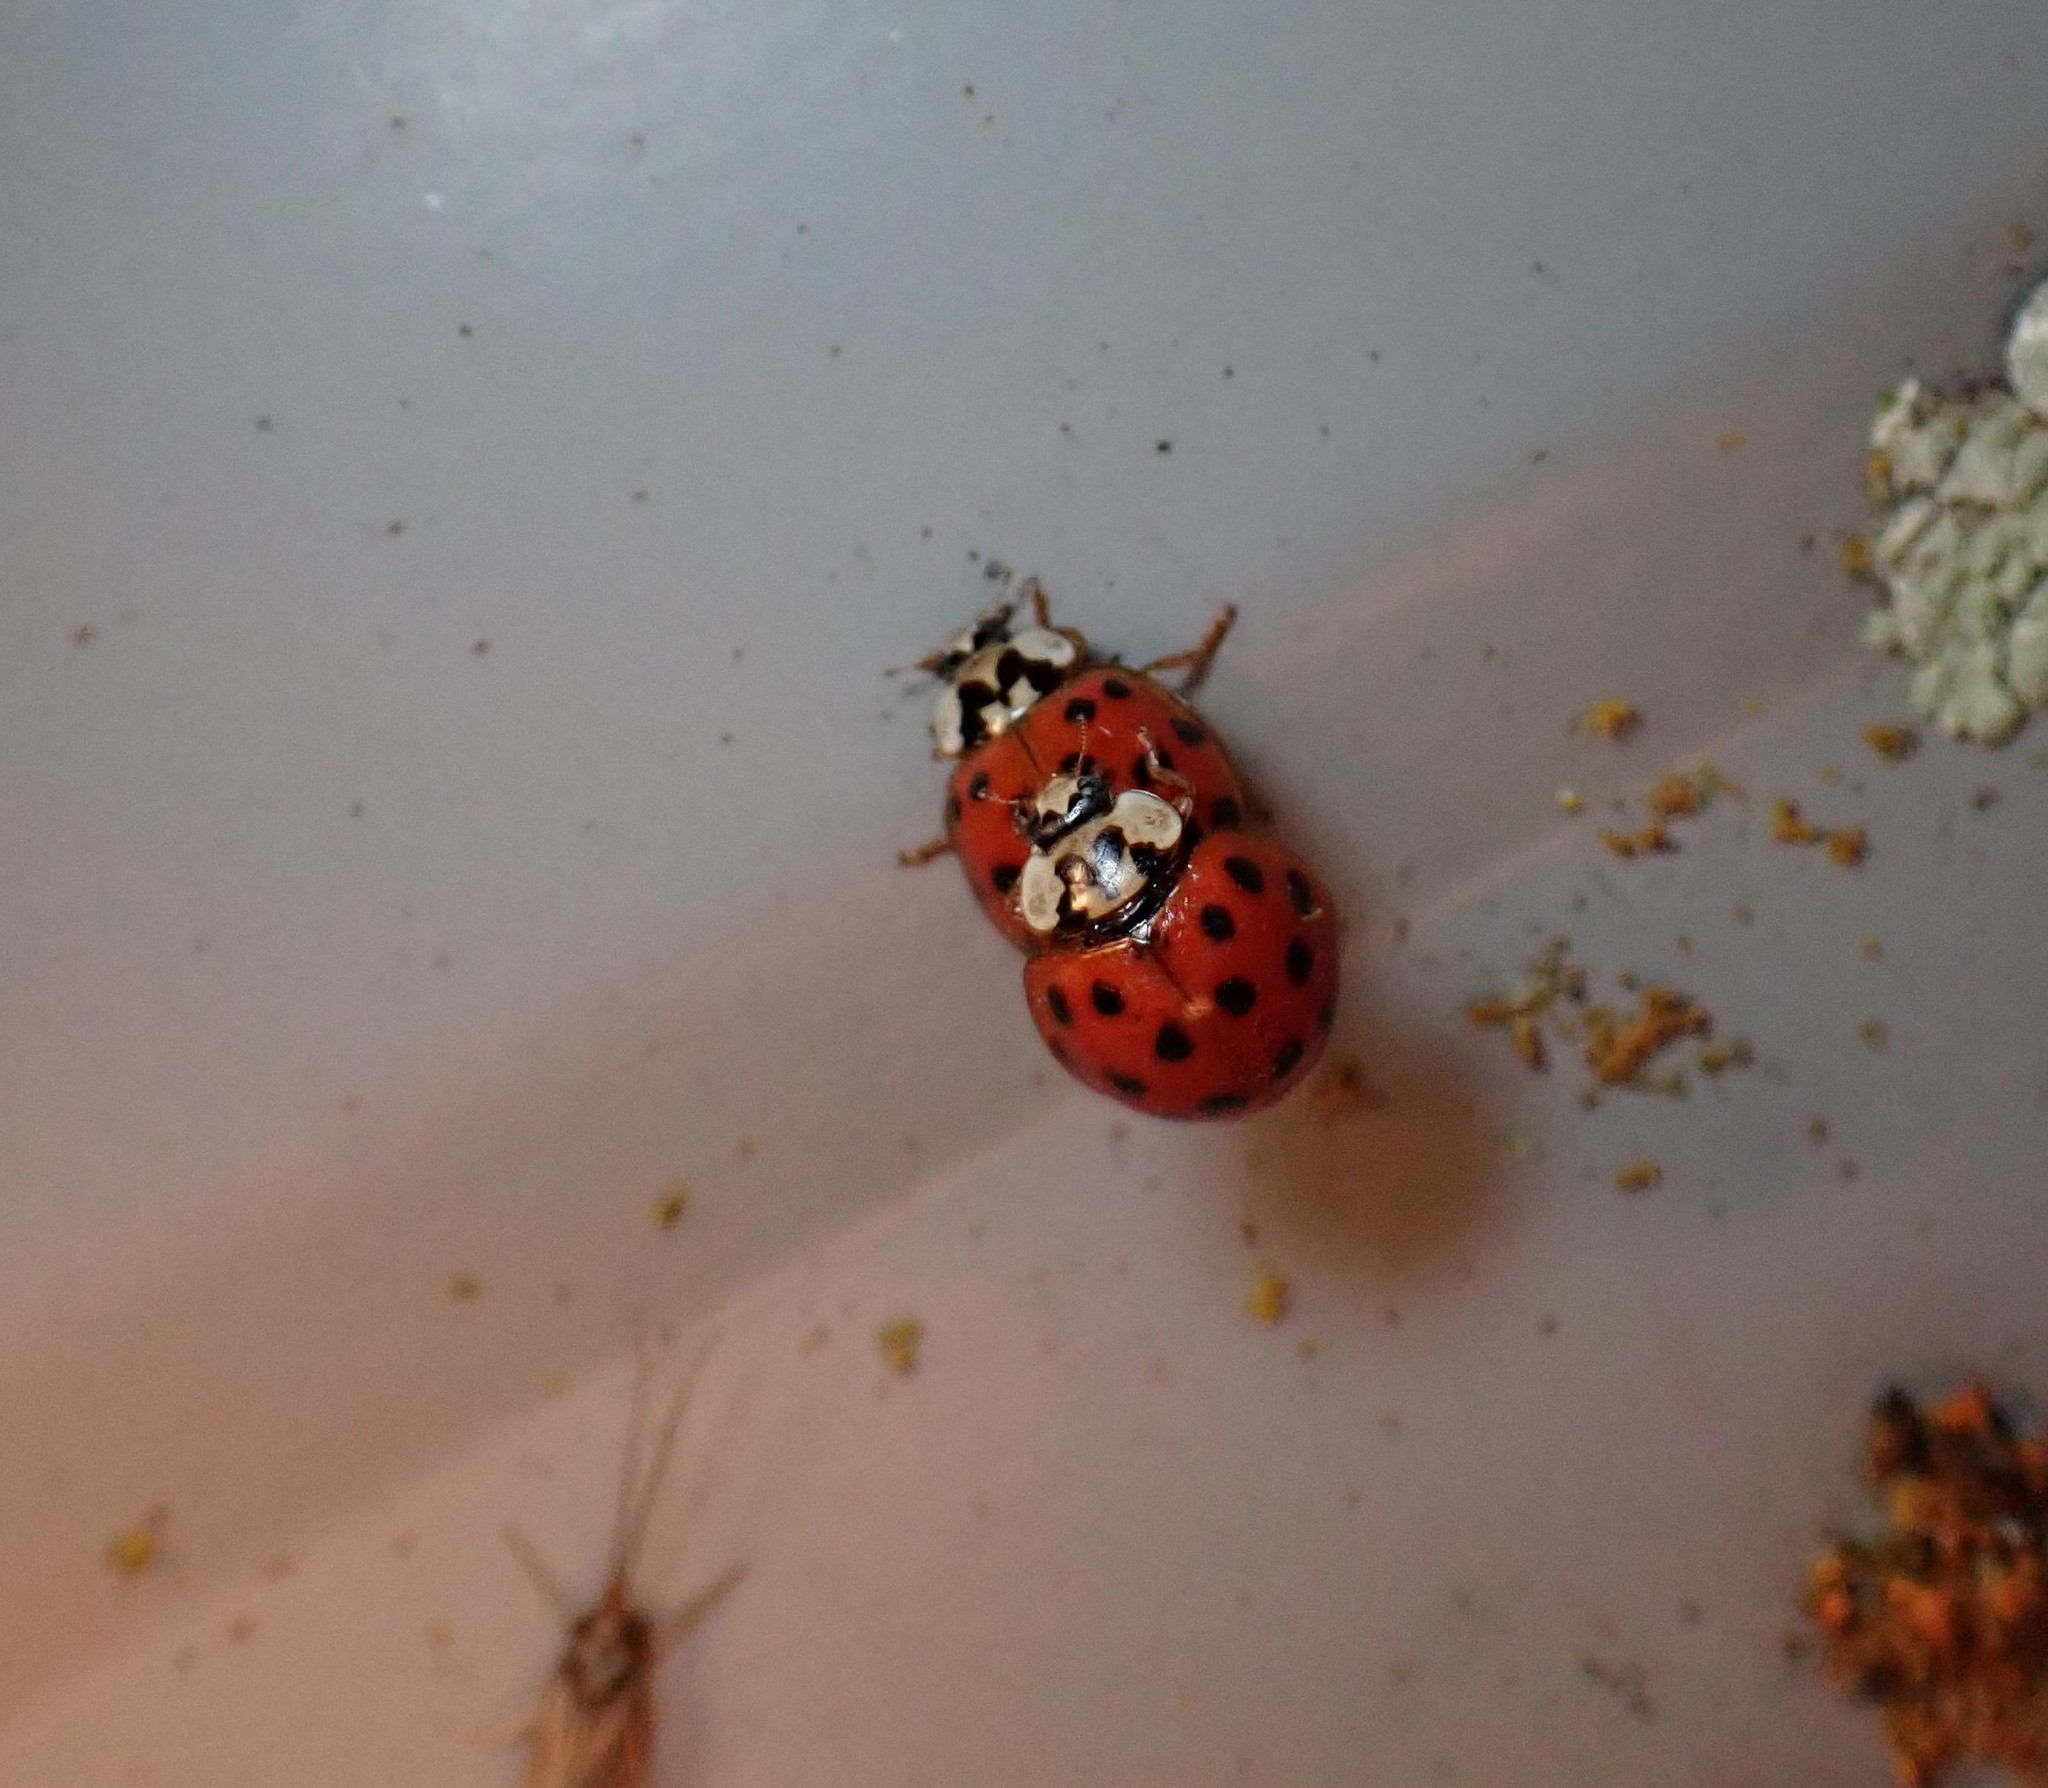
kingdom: Animalia
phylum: Arthropoda
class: Insecta
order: Coleoptera
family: Coccinellidae
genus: Harmonia
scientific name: Harmonia axyridis
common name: Harlequin ladybird
